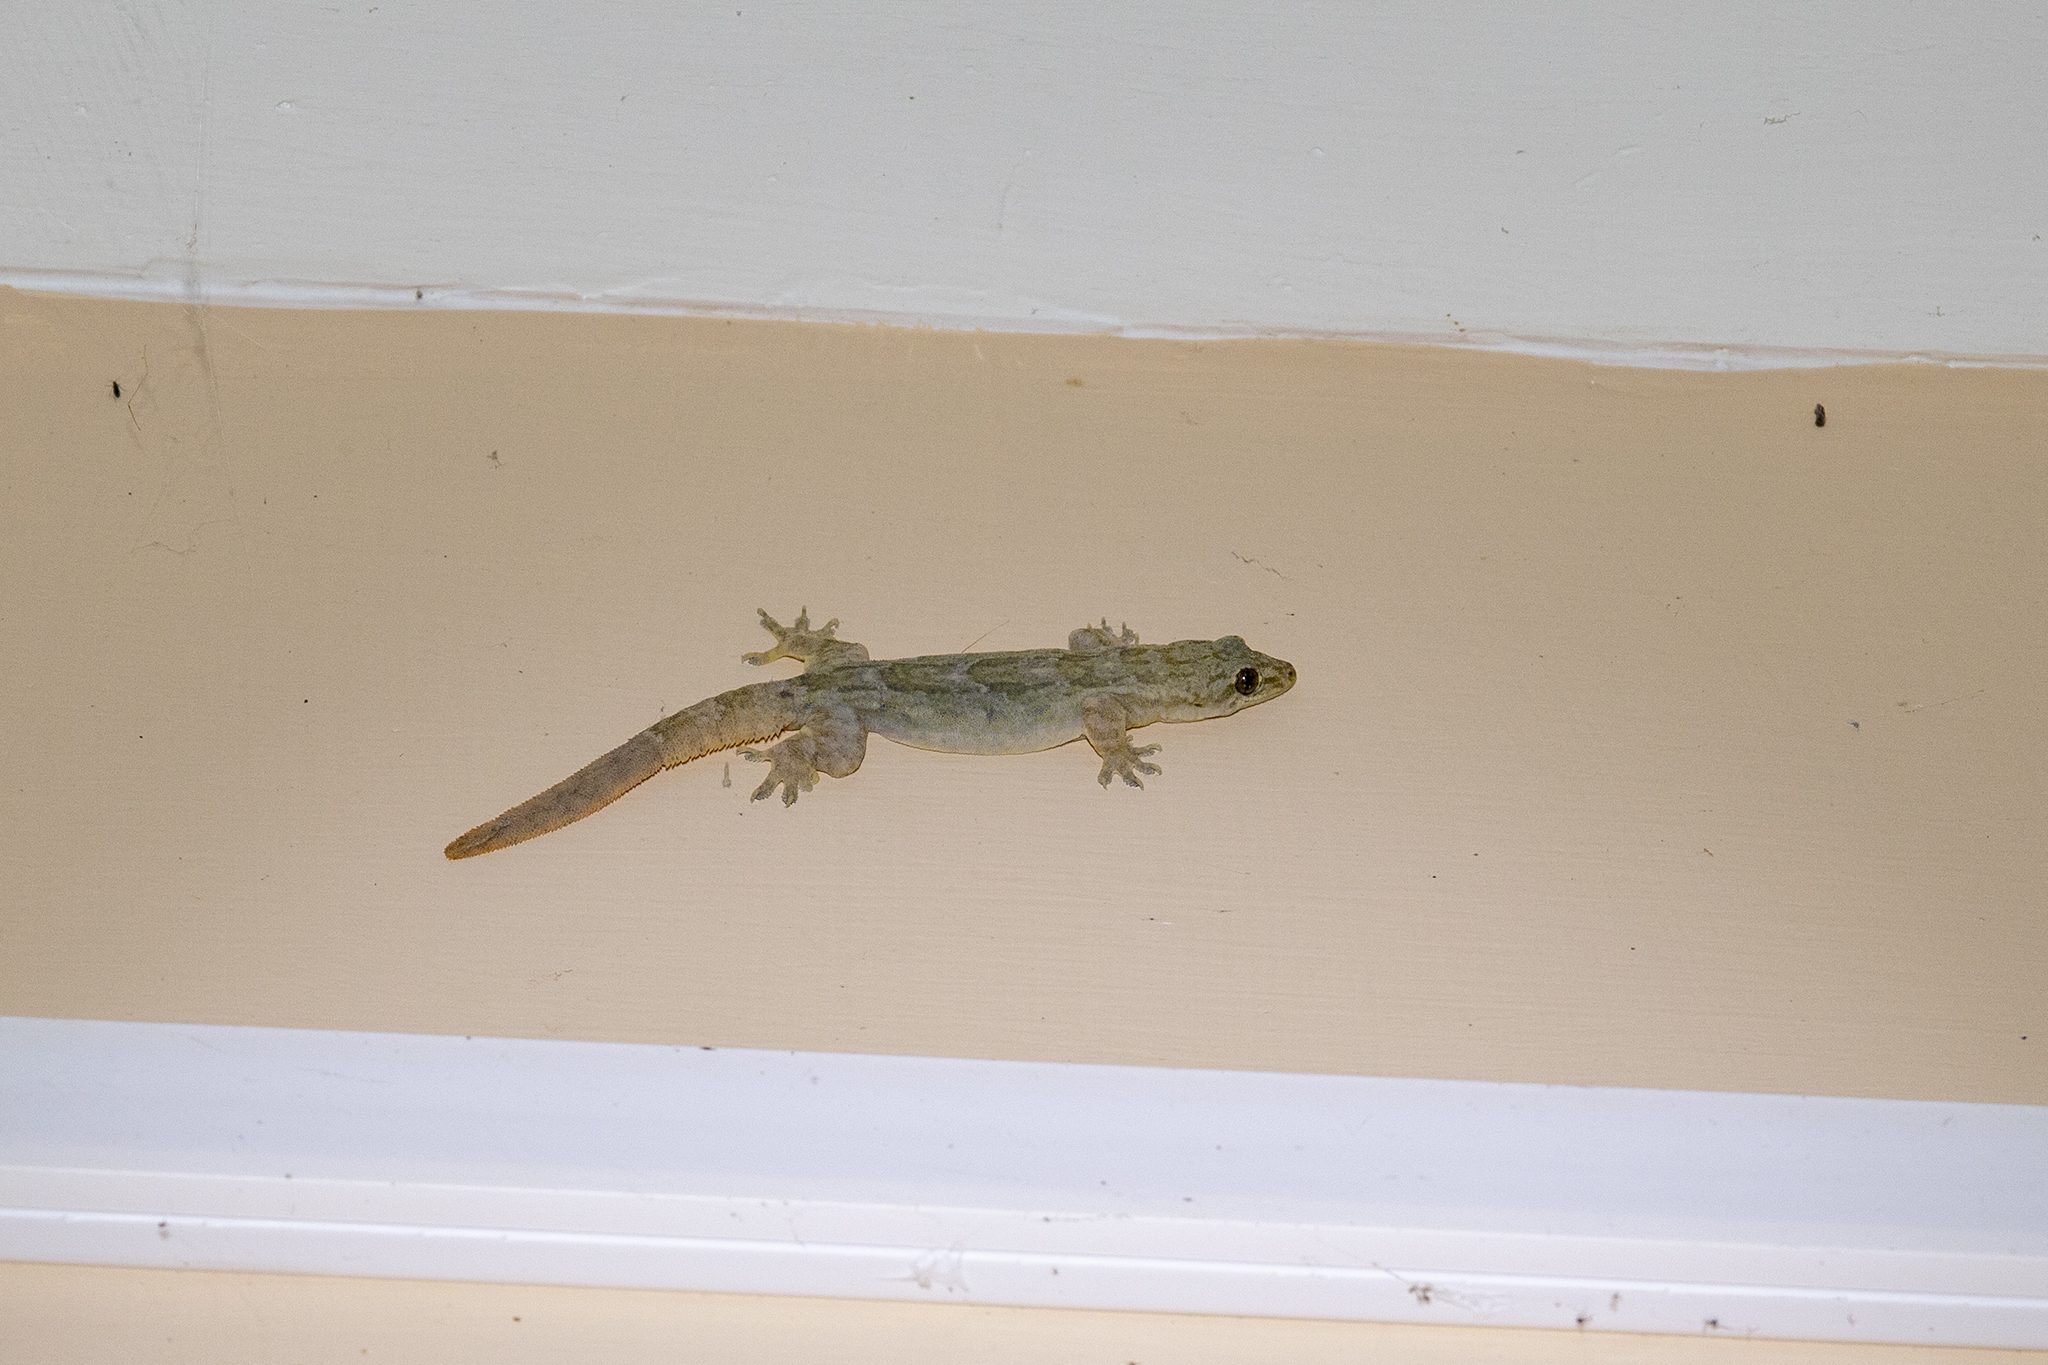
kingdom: Animalia
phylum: Chordata
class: Squamata
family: Gekkonidae
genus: Hemidactylus
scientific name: Hemidactylus platyurus
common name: Flat-tailed house gecko
